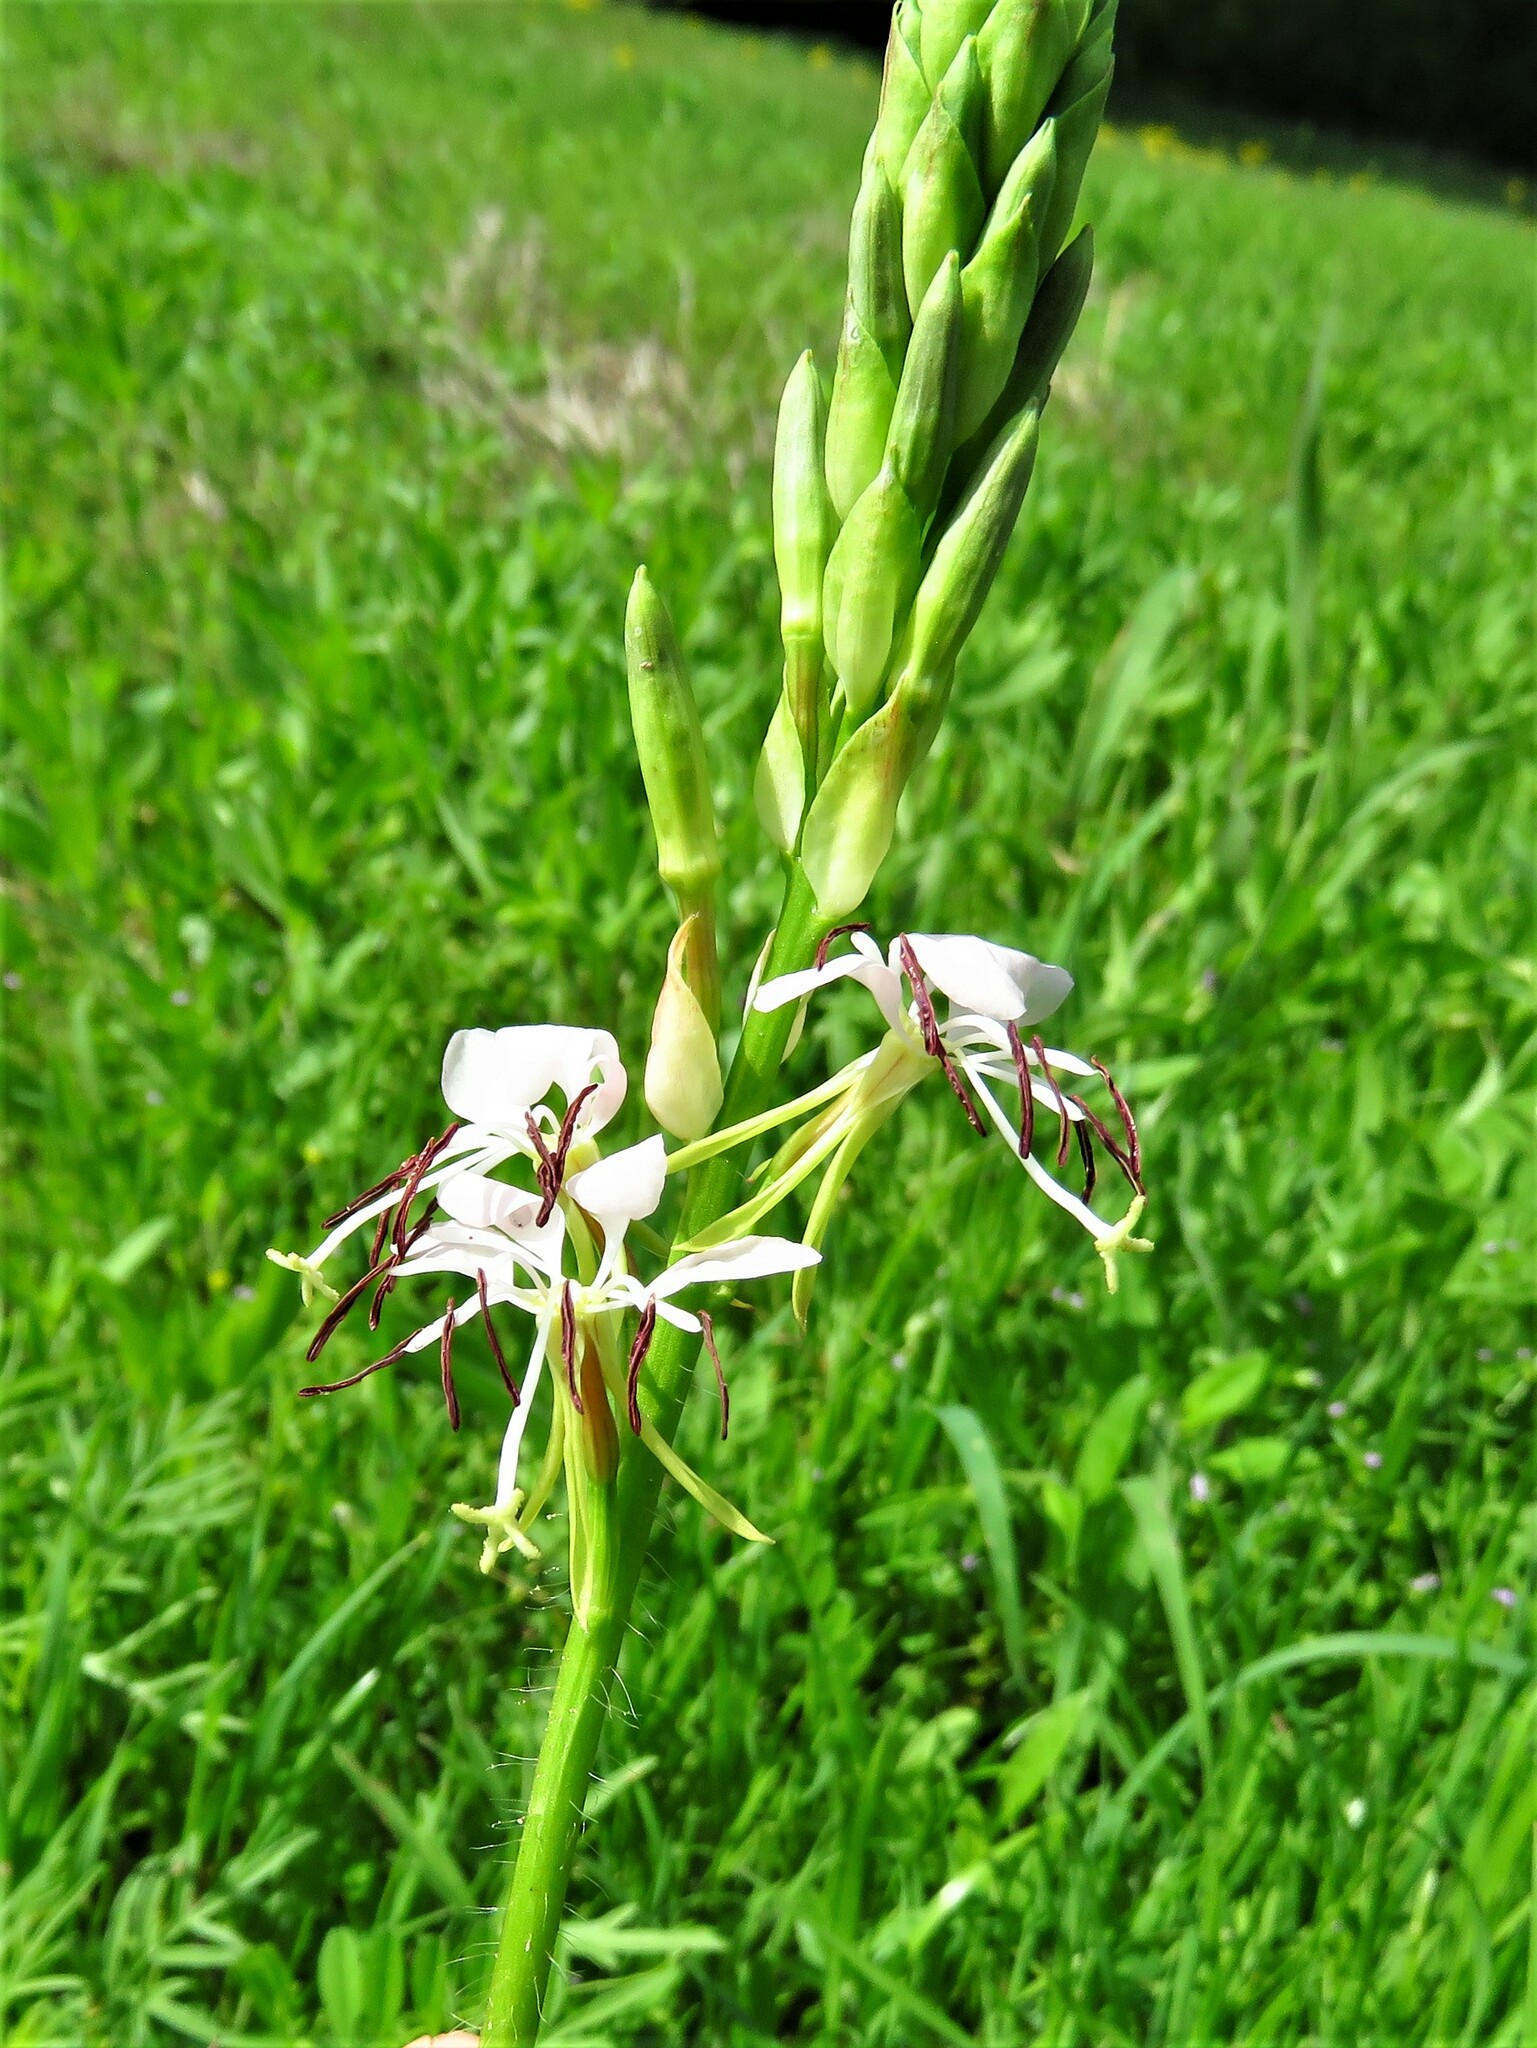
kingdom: Plantae
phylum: Tracheophyta
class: Magnoliopsida
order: Myrtales
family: Onagraceae
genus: Oenothera
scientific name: Oenothera suffulta
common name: Kisses
